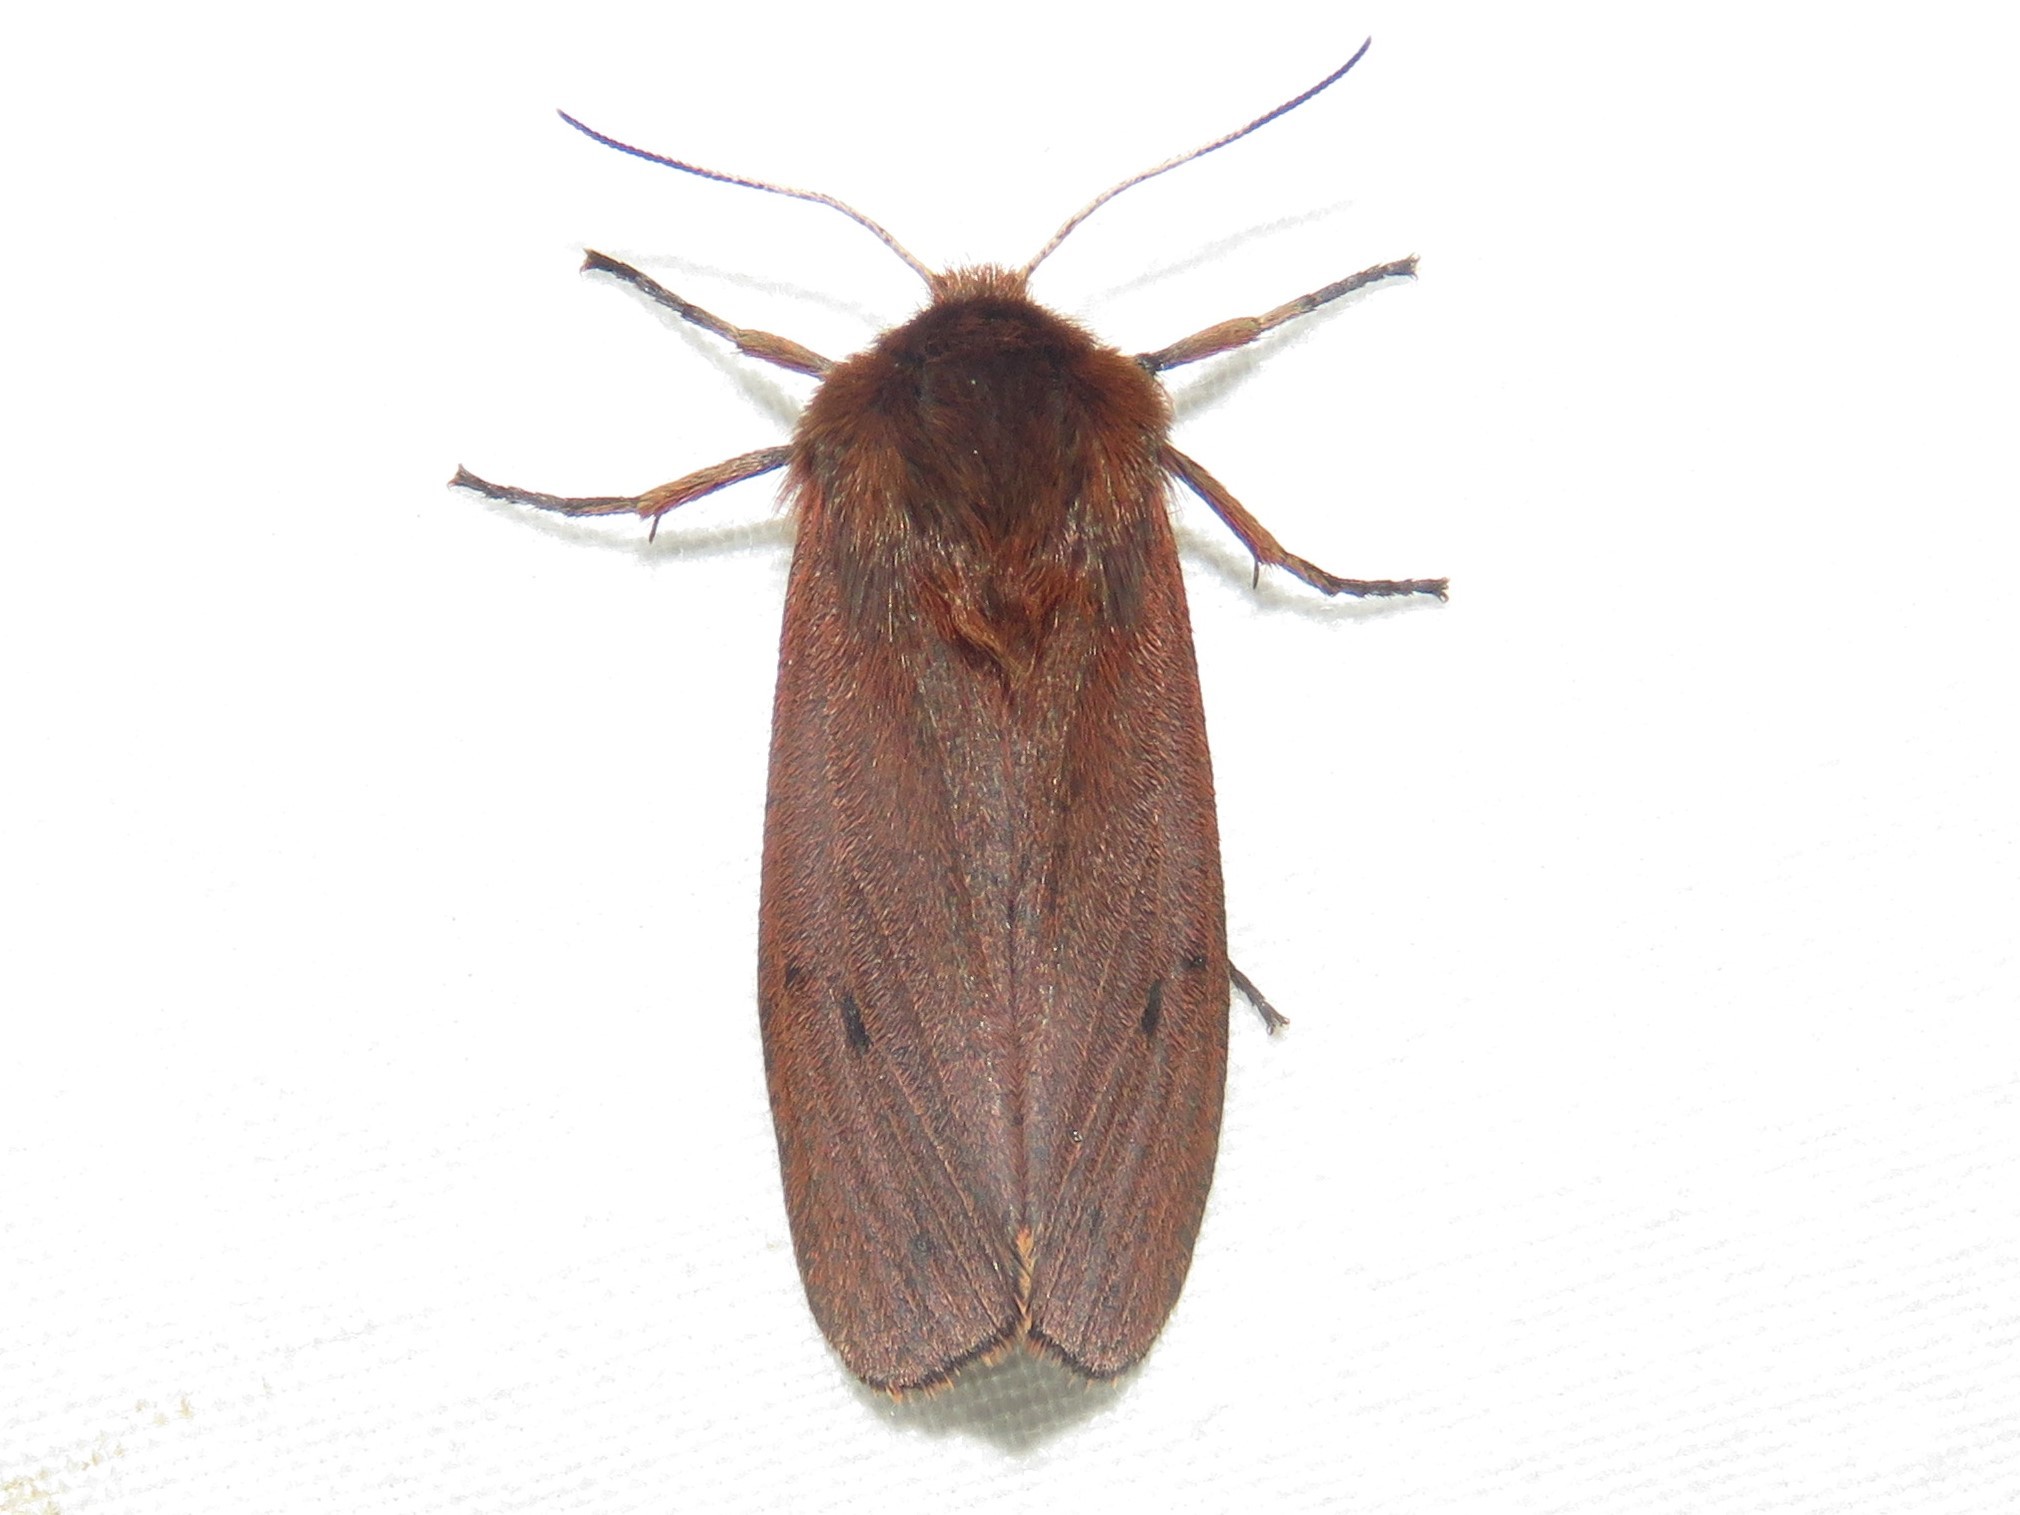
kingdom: Animalia
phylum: Arthropoda
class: Insecta
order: Lepidoptera
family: Erebidae
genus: Phragmatobia
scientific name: Phragmatobia fuliginosa
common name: Ruby tiger
